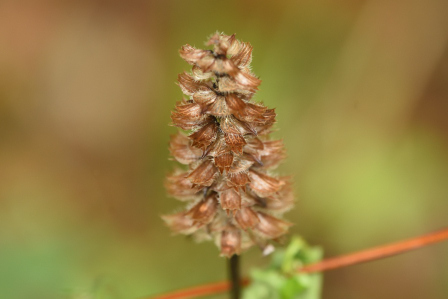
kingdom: Plantae
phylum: Tracheophyta
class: Magnoliopsida
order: Lamiales
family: Lamiaceae
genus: Prunella
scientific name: Prunella vulgaris
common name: Heal-all
